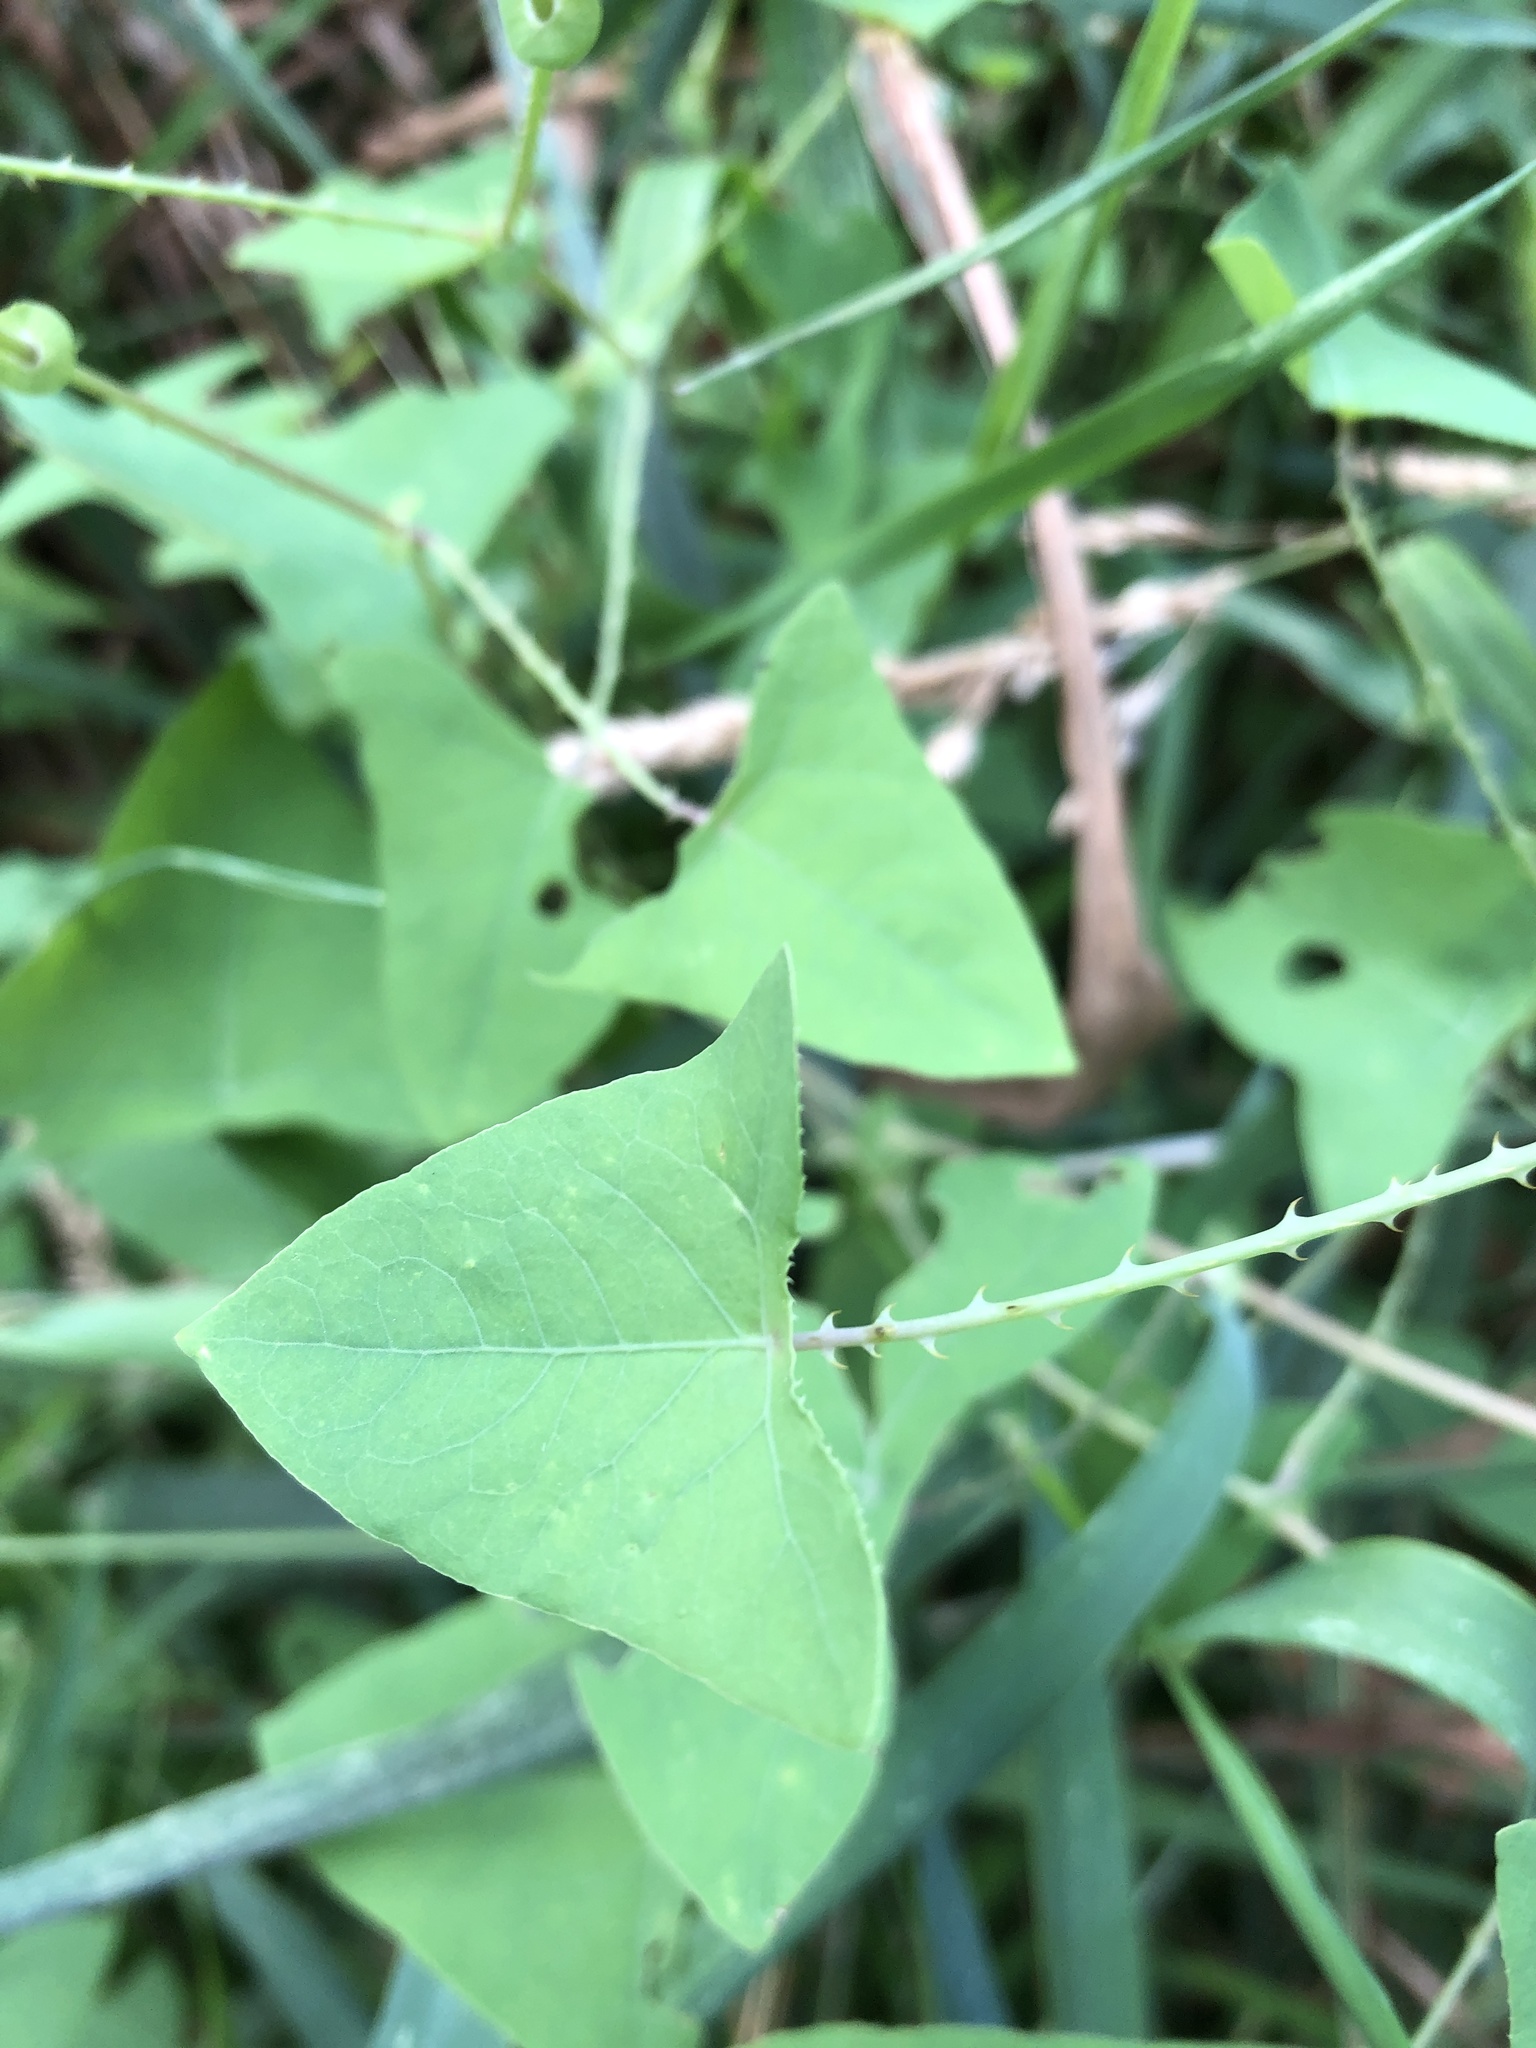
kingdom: Plantae
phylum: Tracheophyta
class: Magnoliopsida
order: Caryophyllales
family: Polygonaceae
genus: Persicaria
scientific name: Persicaria perfoliata
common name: Asiatic tearthumb
